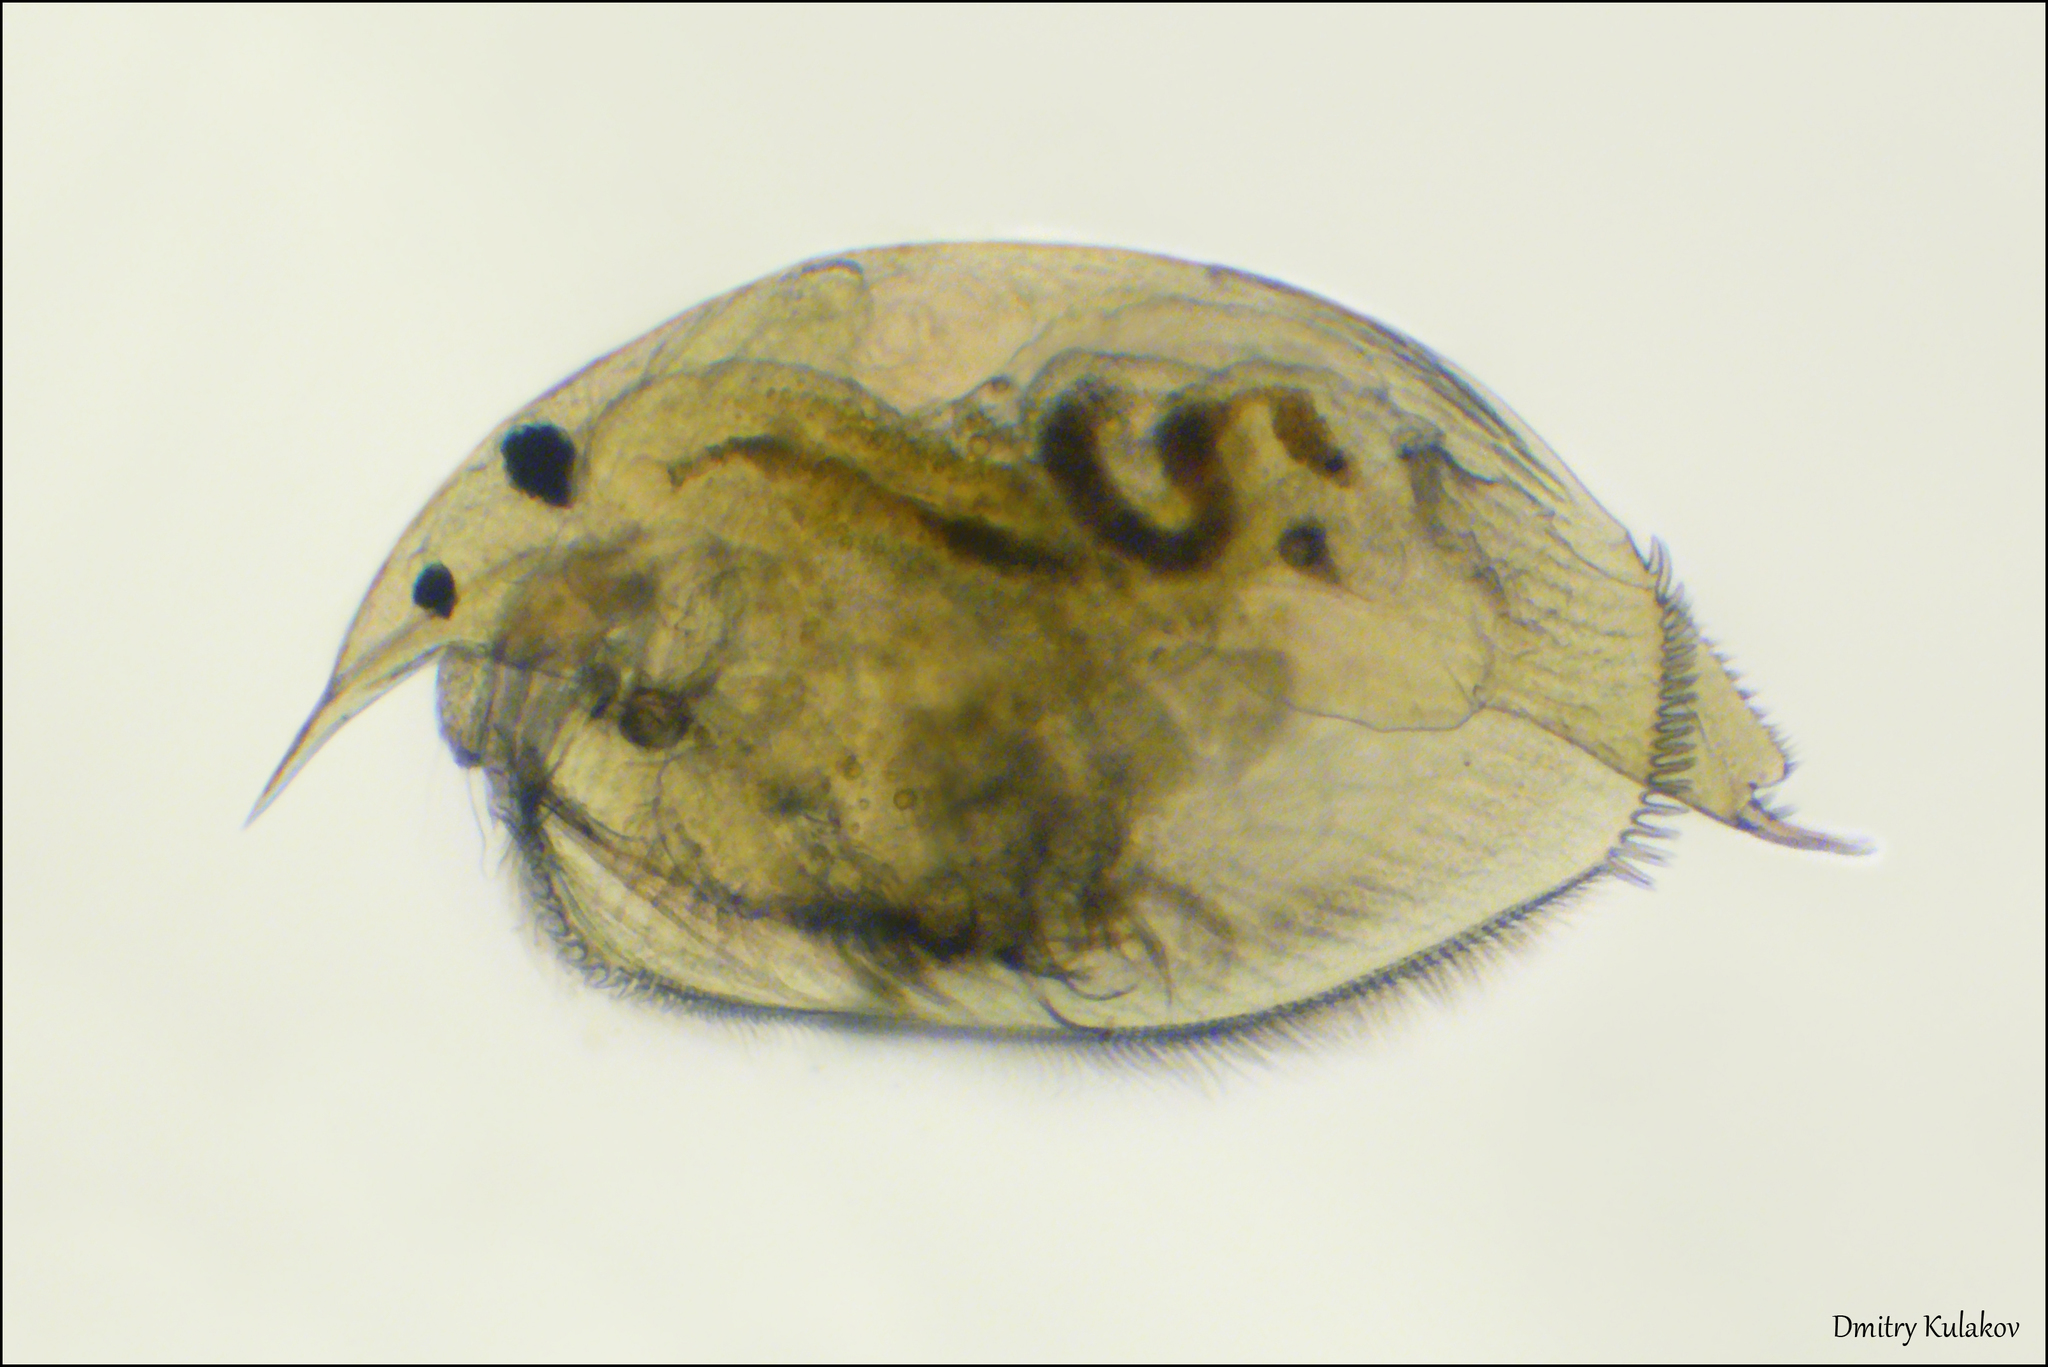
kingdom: Animalia
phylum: Arthropoda
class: Branchiopoda
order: Diplostraca
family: Chydoridae
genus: Peracantha
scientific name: Peracantha truncata
